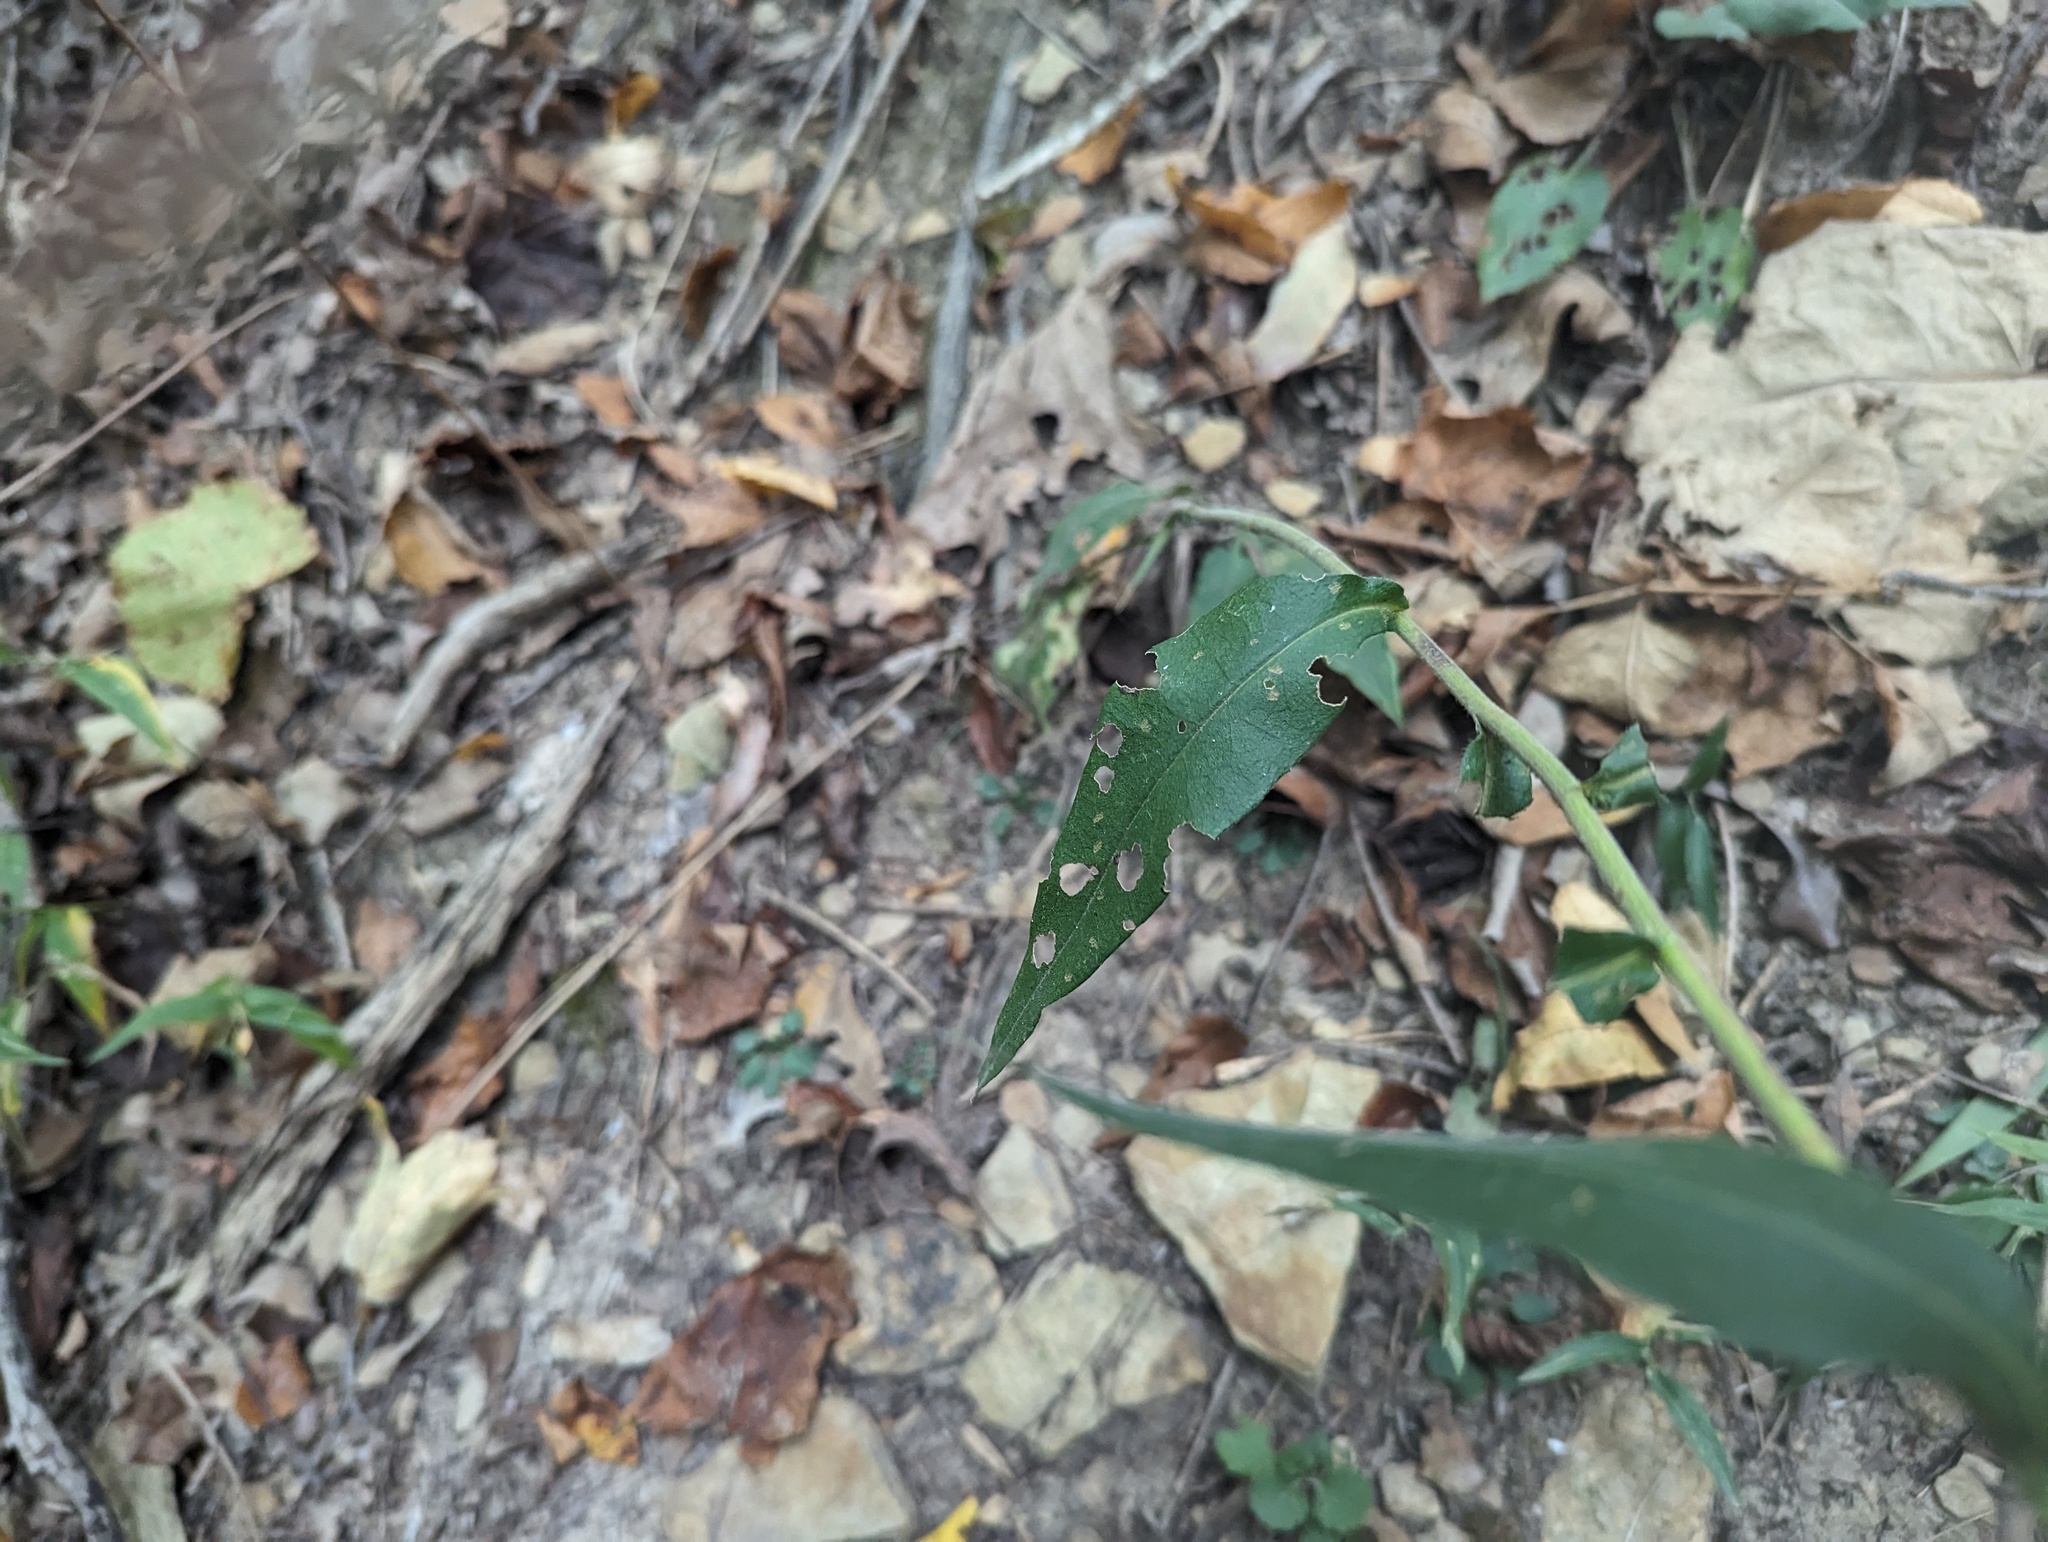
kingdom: Plantae
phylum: Tracheophyta
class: Magnoliopsida
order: Asterales
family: Asteraceae
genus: Symphyotrichum
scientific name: Symphyotrichum undulatum
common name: Clasping heart-leaf aster
